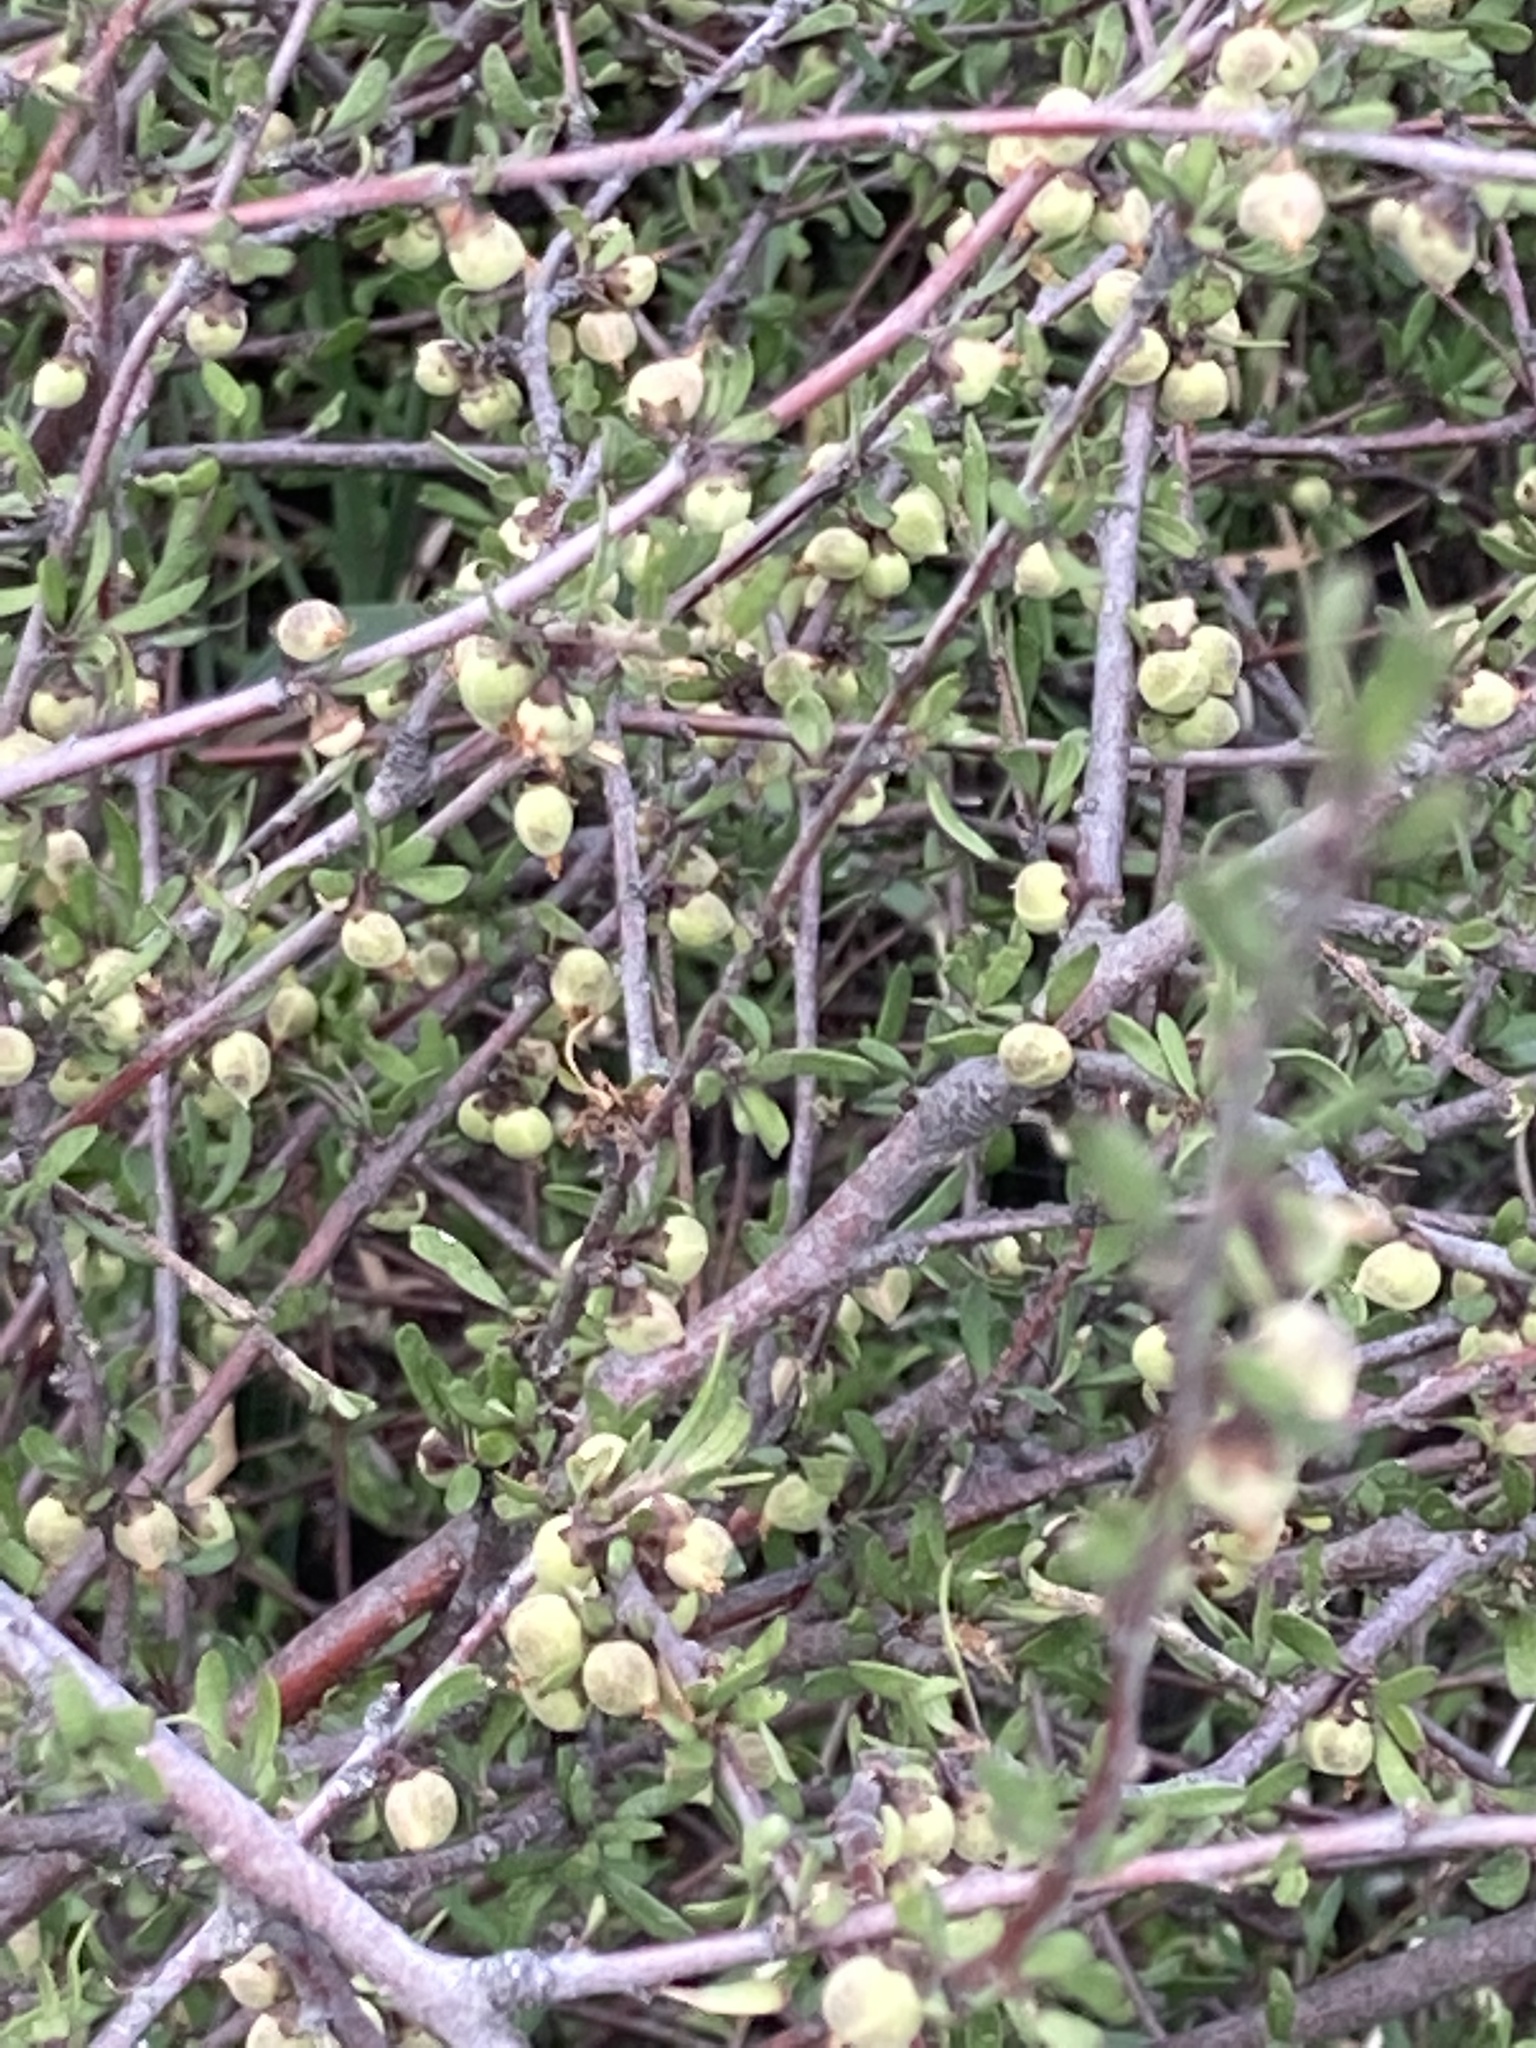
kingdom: Plantae
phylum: Tracheophyta
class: Magnoliopsida
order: Malvales
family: Malvaceae
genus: Plagianthus
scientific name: Plagianthus divaricatus
